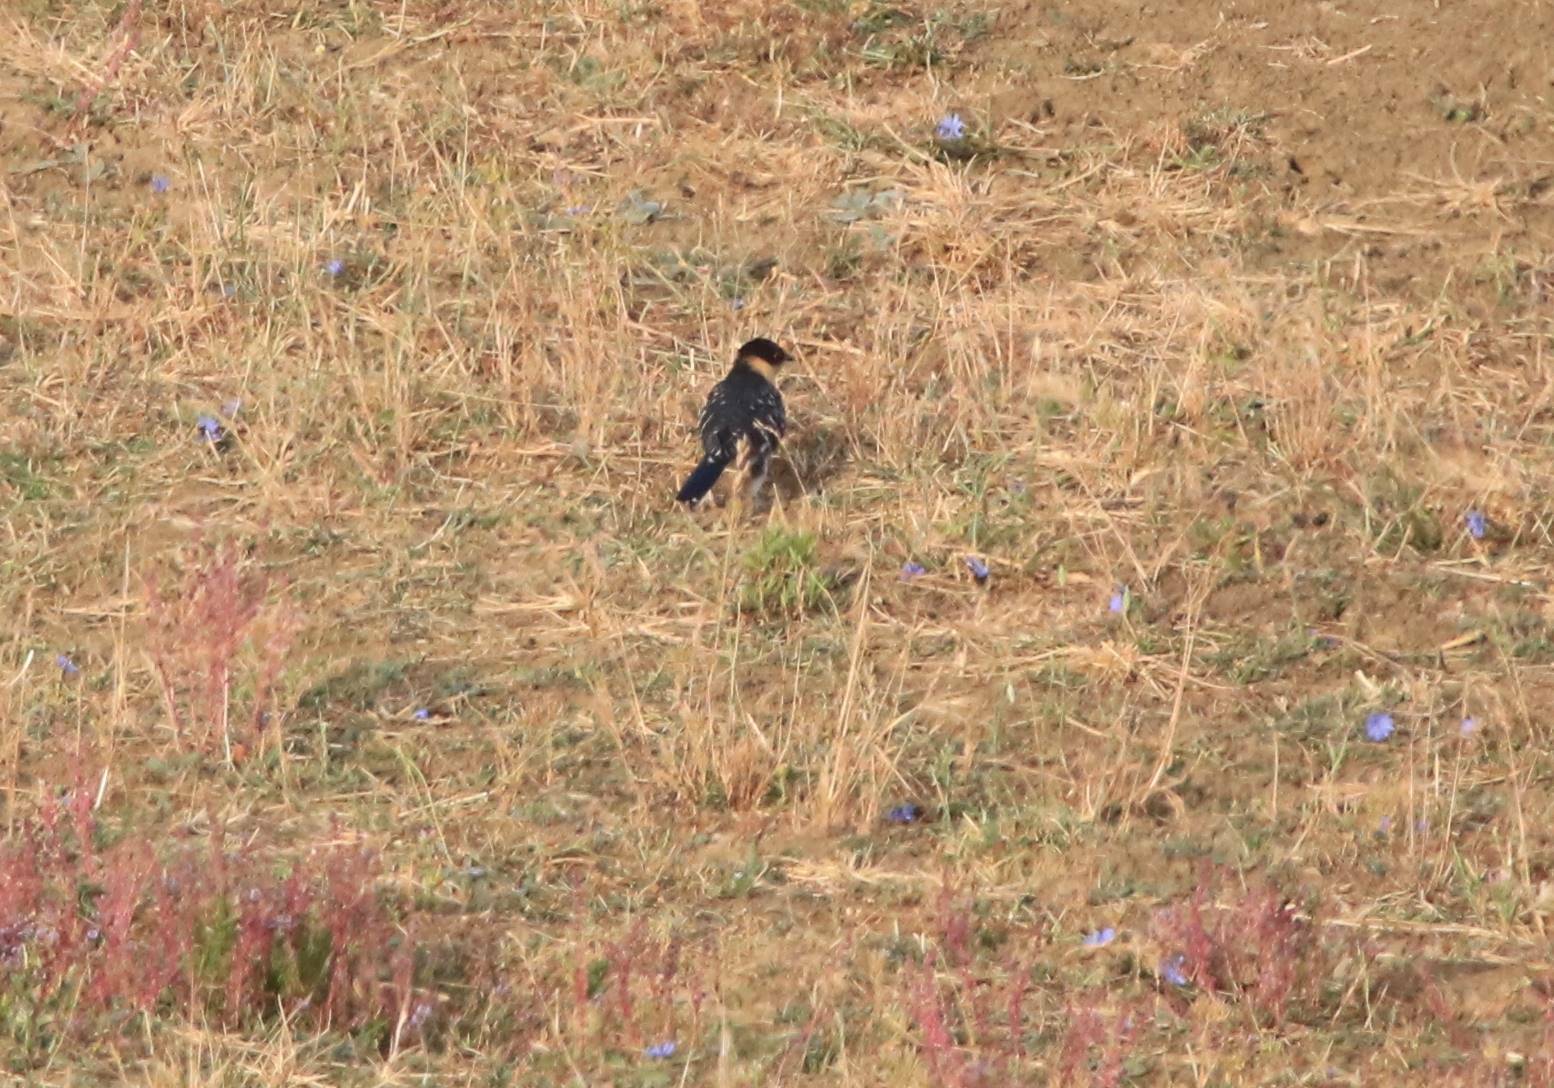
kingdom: Animalia
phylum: Chordata
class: Aves
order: Cuculiformes
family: Cuculidae
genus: Clamator
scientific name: Clamator glandarius
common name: Great spotted cuckoo
